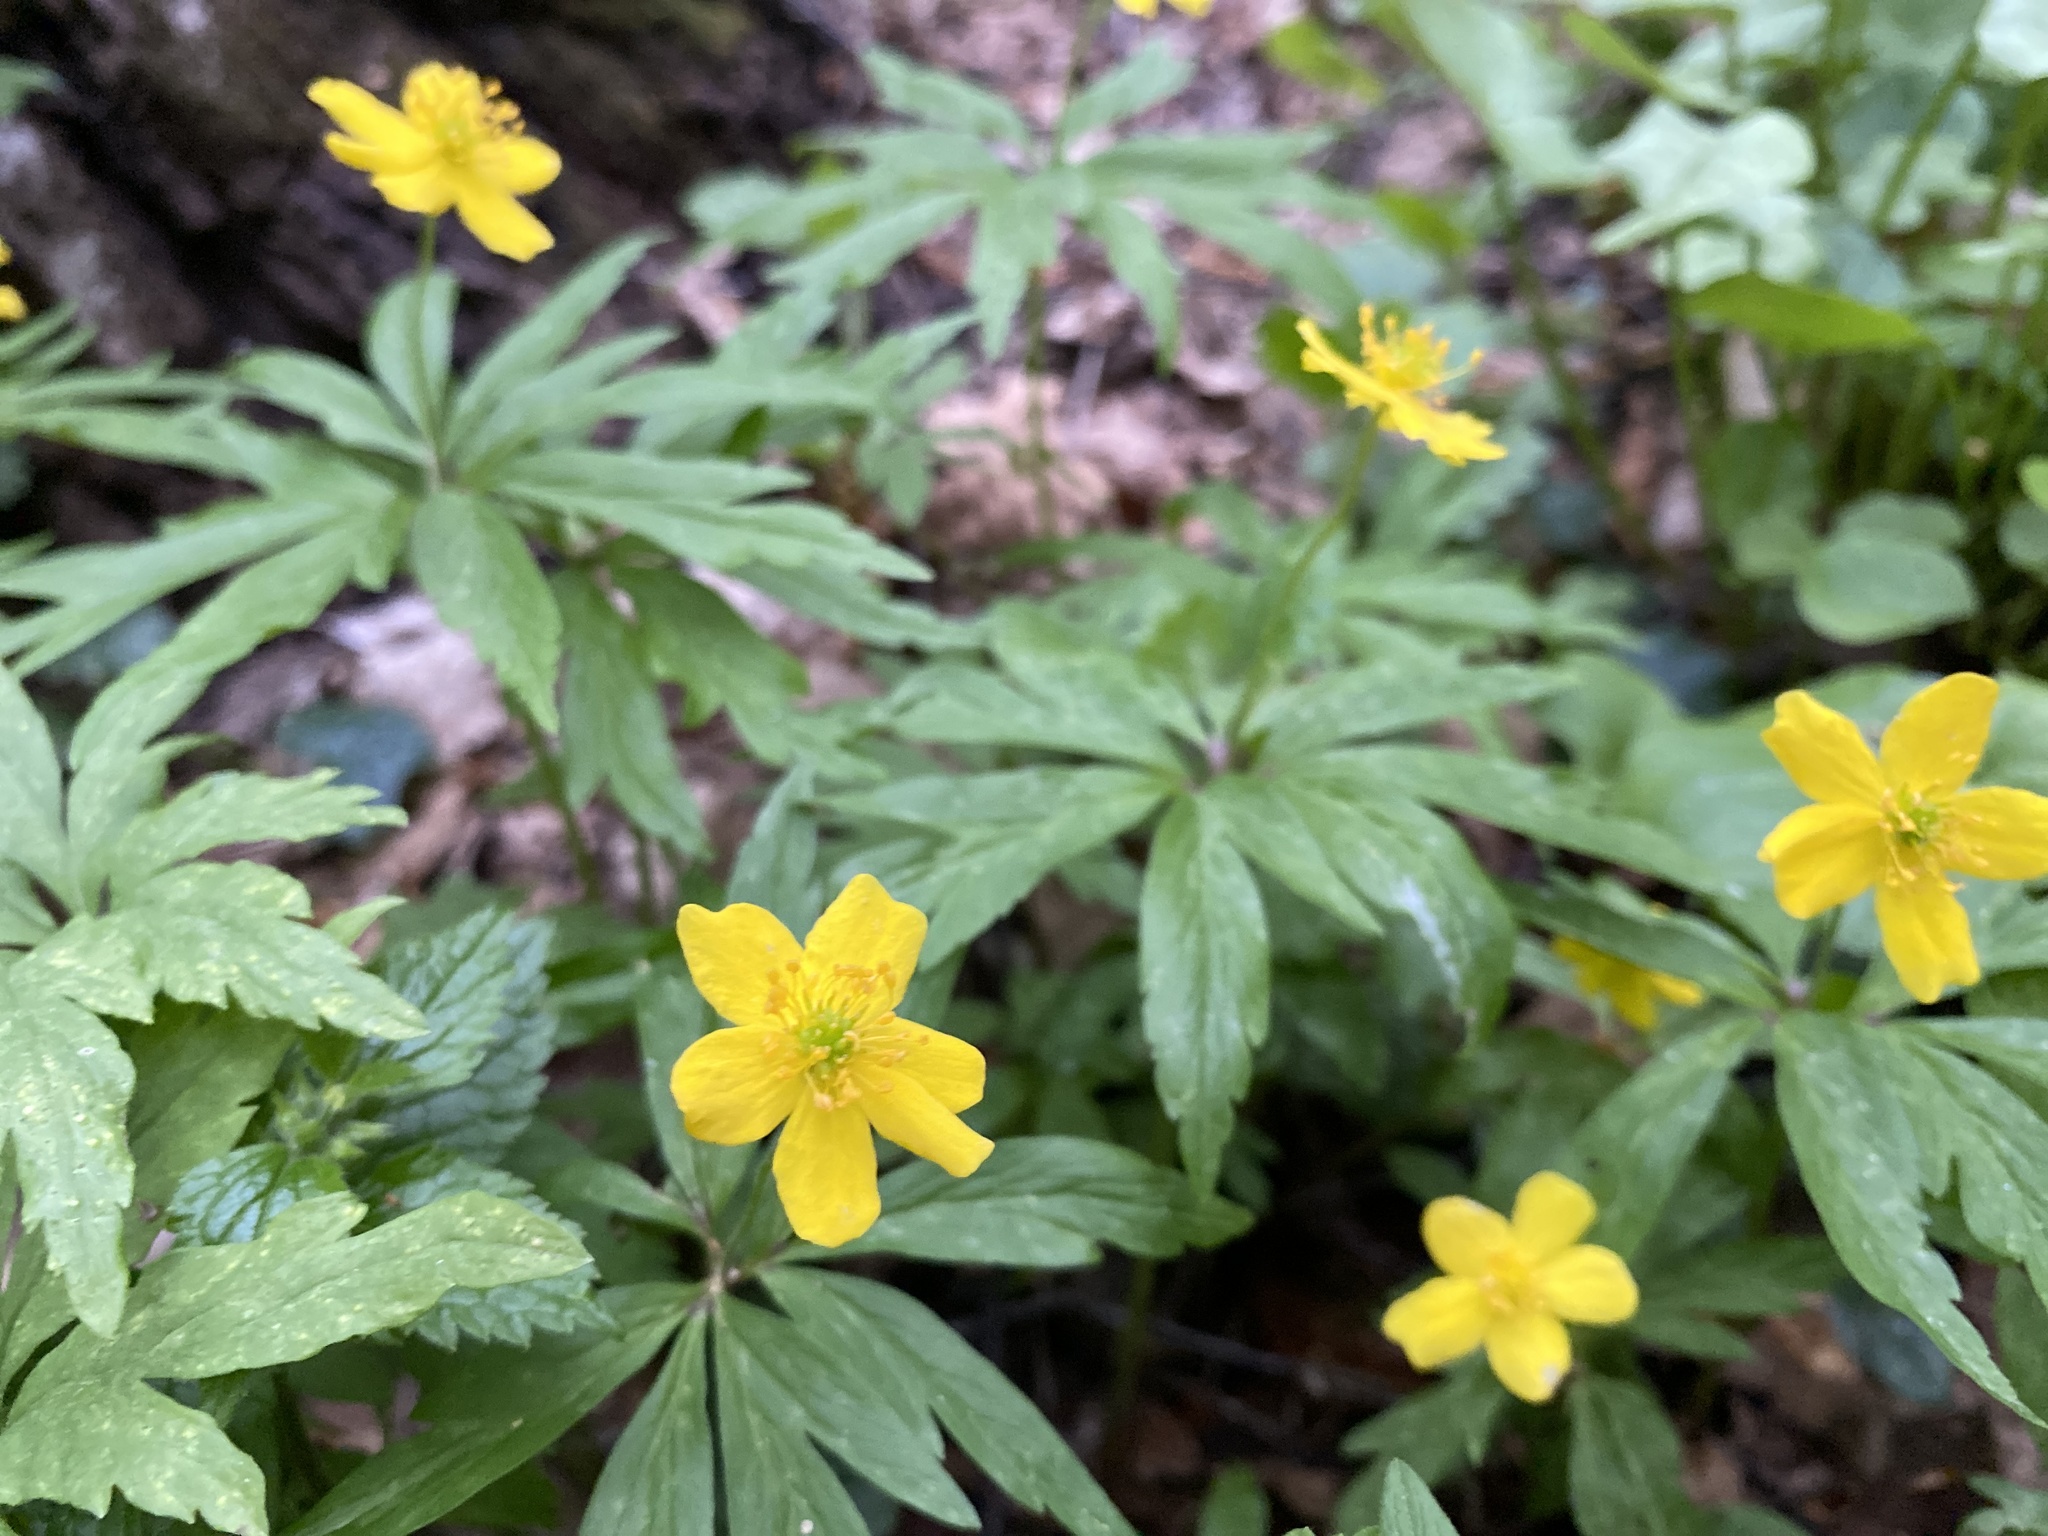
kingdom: Plantae
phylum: Tracheophyta
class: Magnoliopsida
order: Ranunculales
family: Ranunculaceae
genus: Anemone
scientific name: Anemone ranunculoides
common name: Yellow anemone
